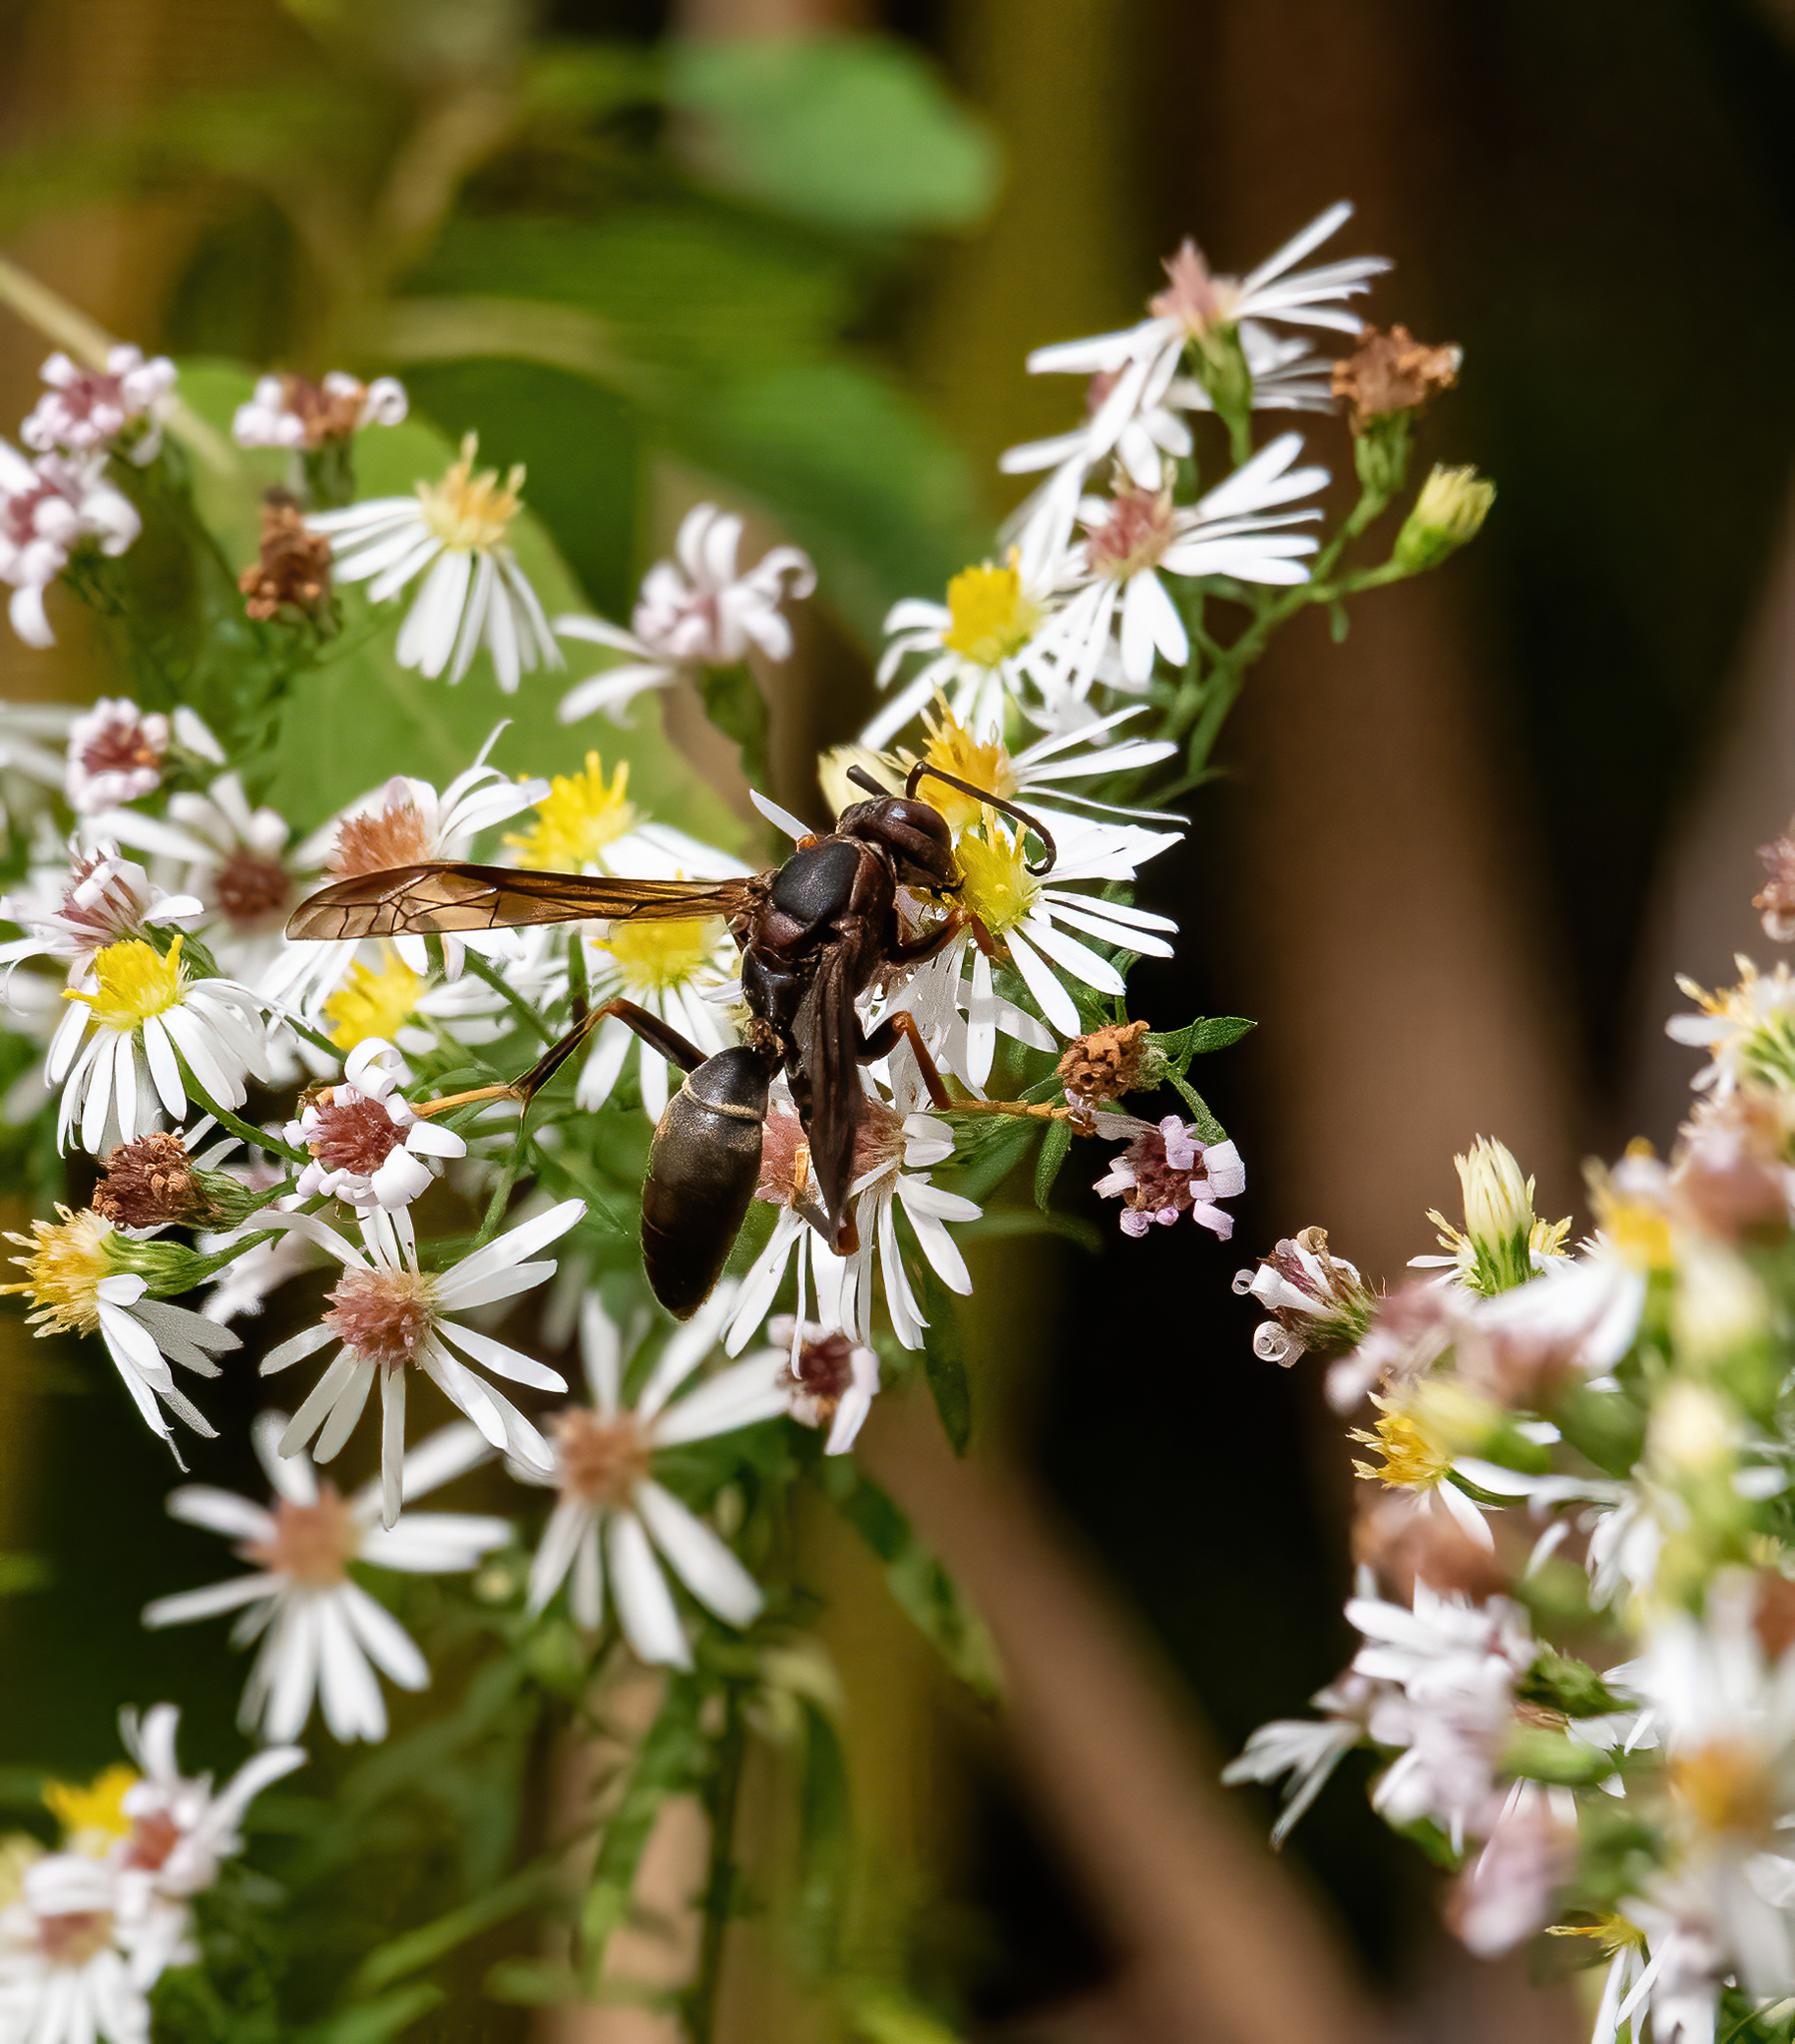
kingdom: Animalia
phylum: Arthropoda
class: Insecta
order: Hymenoptera
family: Eumenidae
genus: Polistes
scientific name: Polistes fuscatus
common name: Dark paper wasp
